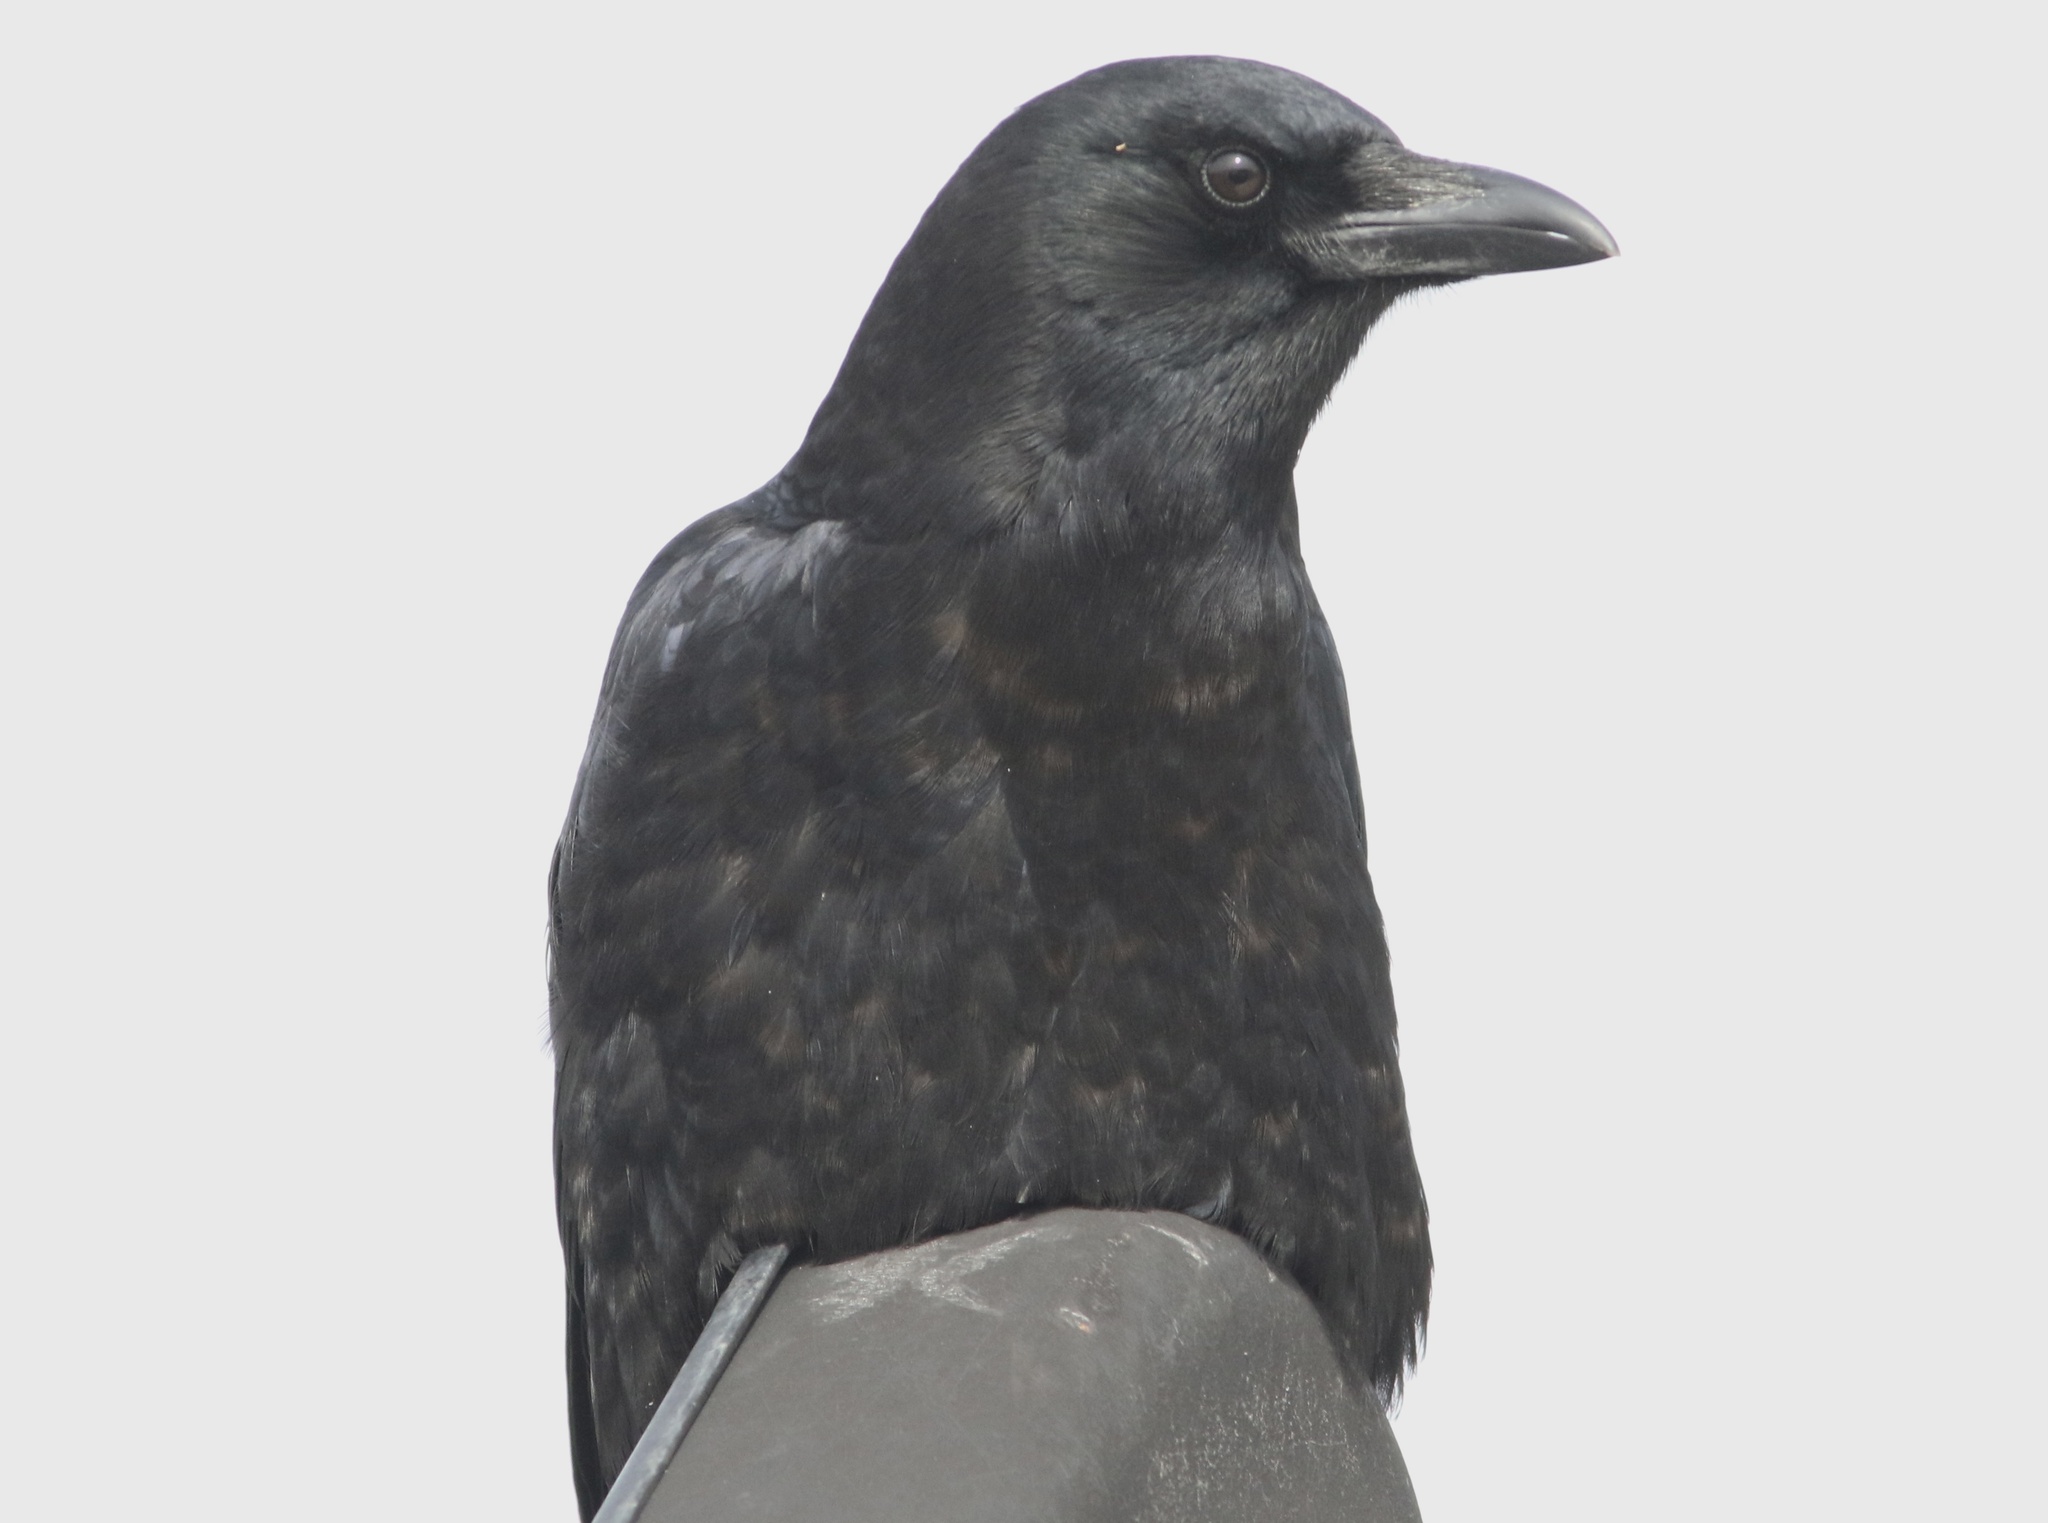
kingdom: Animalia
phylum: Chordata
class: Aves
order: Passeriformes
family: Corvidae
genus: Corvus
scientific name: Corvus brachyrhynchos
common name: American crow
